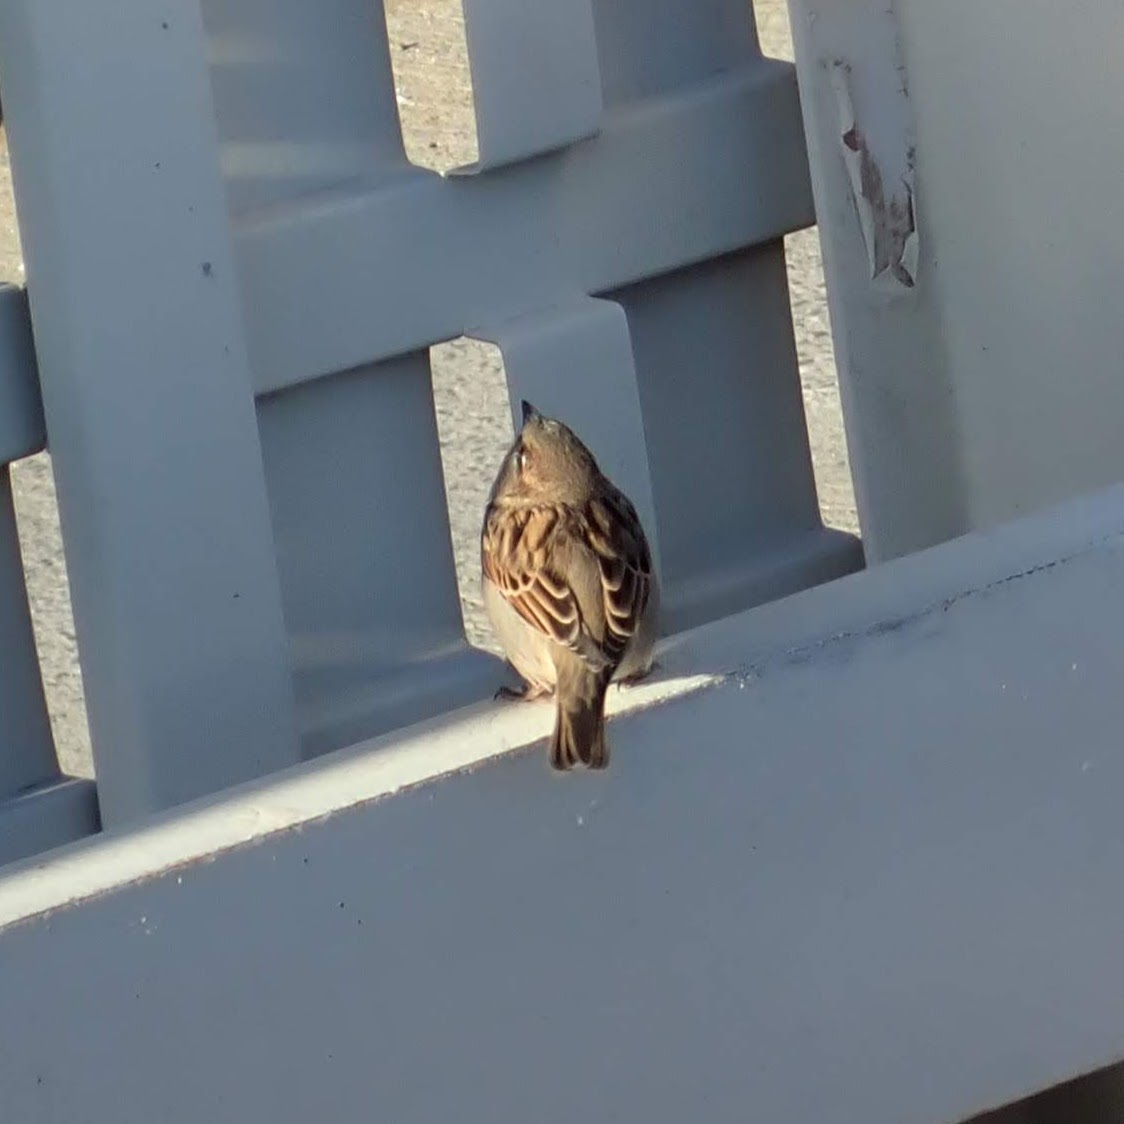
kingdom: Animalia
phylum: Chordata
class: Aves
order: Passeriformes
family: Passeridae
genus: Passer
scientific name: Passer domesticus
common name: House sparrow
